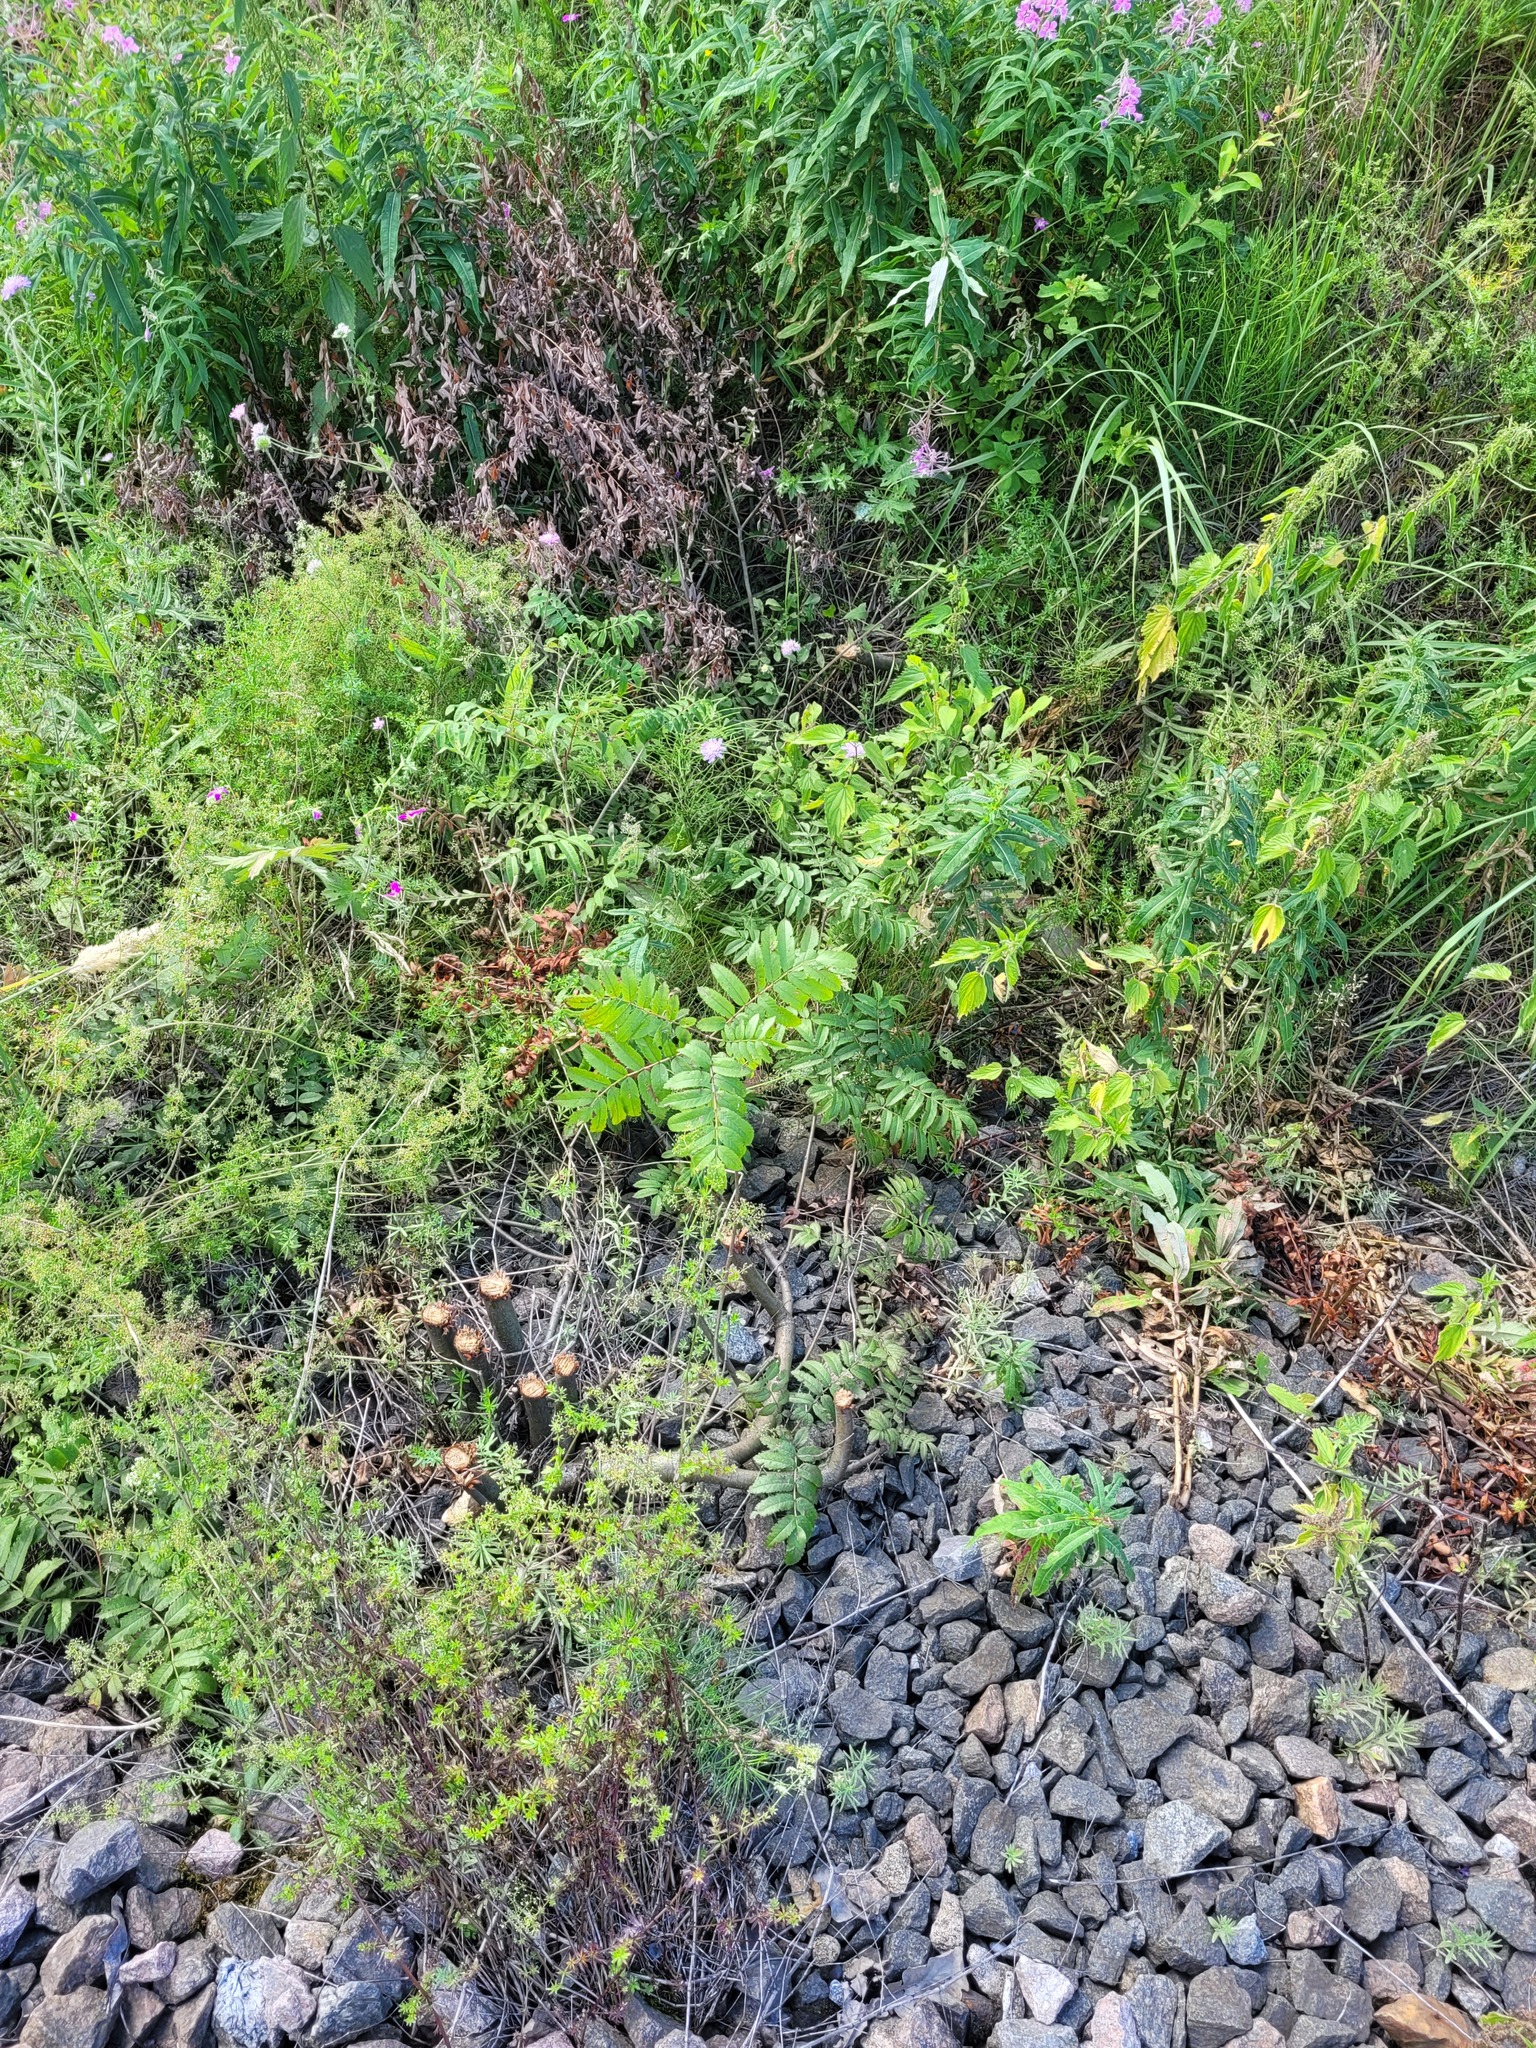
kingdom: Plantae
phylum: Tracheophyta
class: Magnoliopsida
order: Rosales
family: Rosaceae
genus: Sorbus
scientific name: Sorbus aucuparia
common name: Rowan
